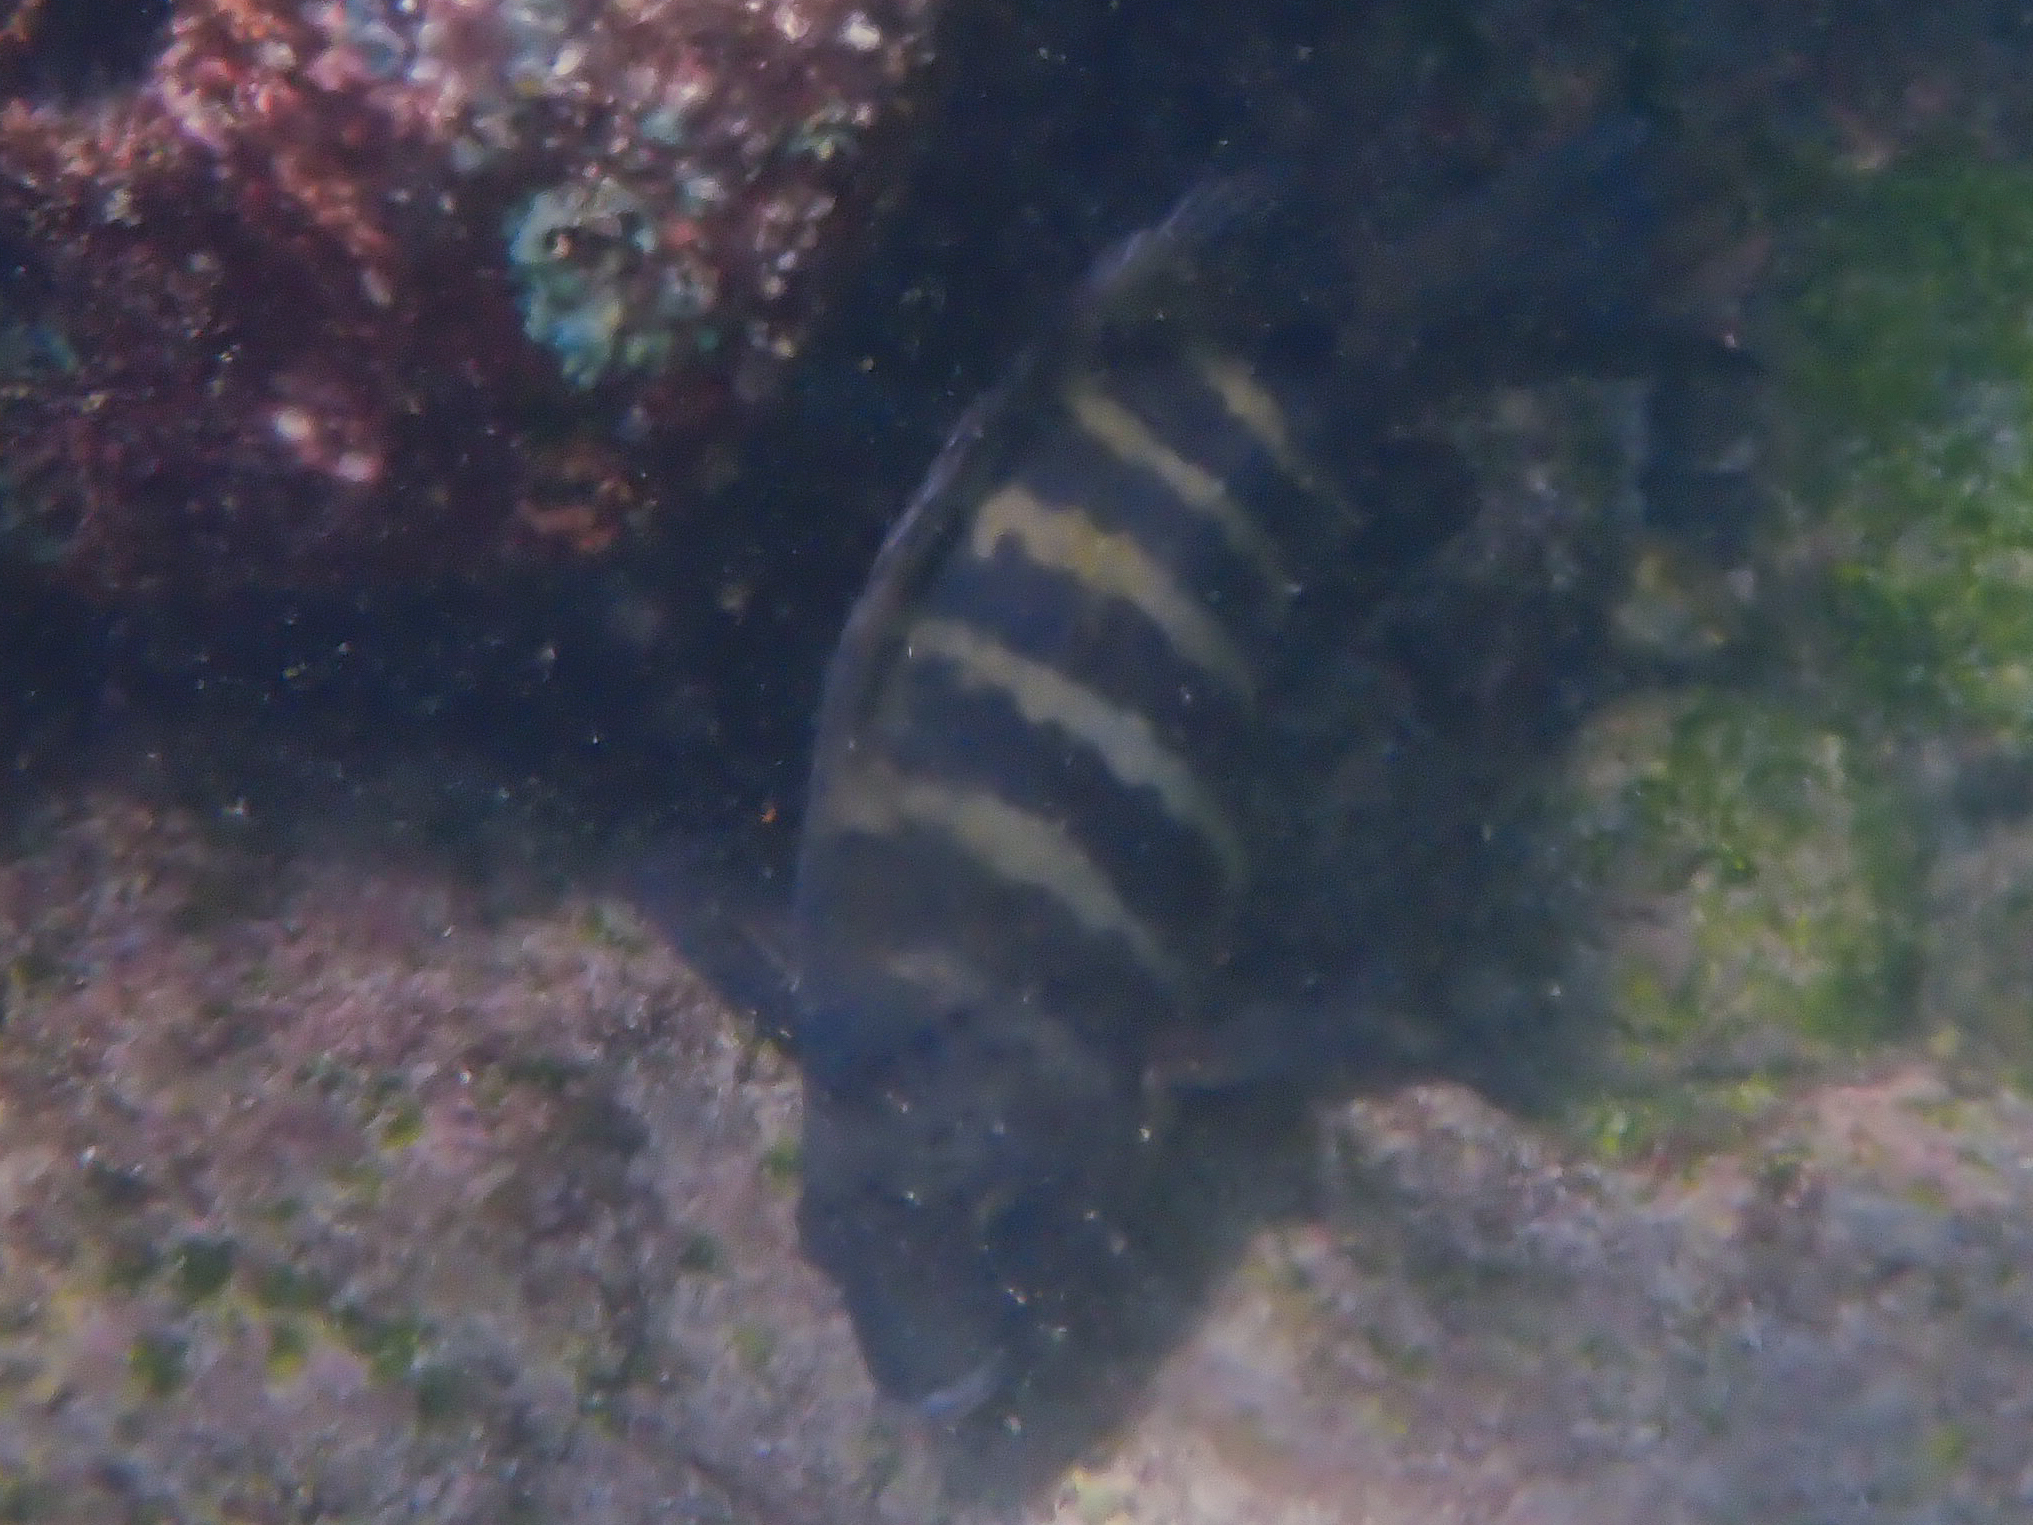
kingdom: Animalia
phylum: Chordata
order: Perciformes
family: Pomacentridae
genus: Abudefduf
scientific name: Abudefduf sordidus
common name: Blackspot sergeant
